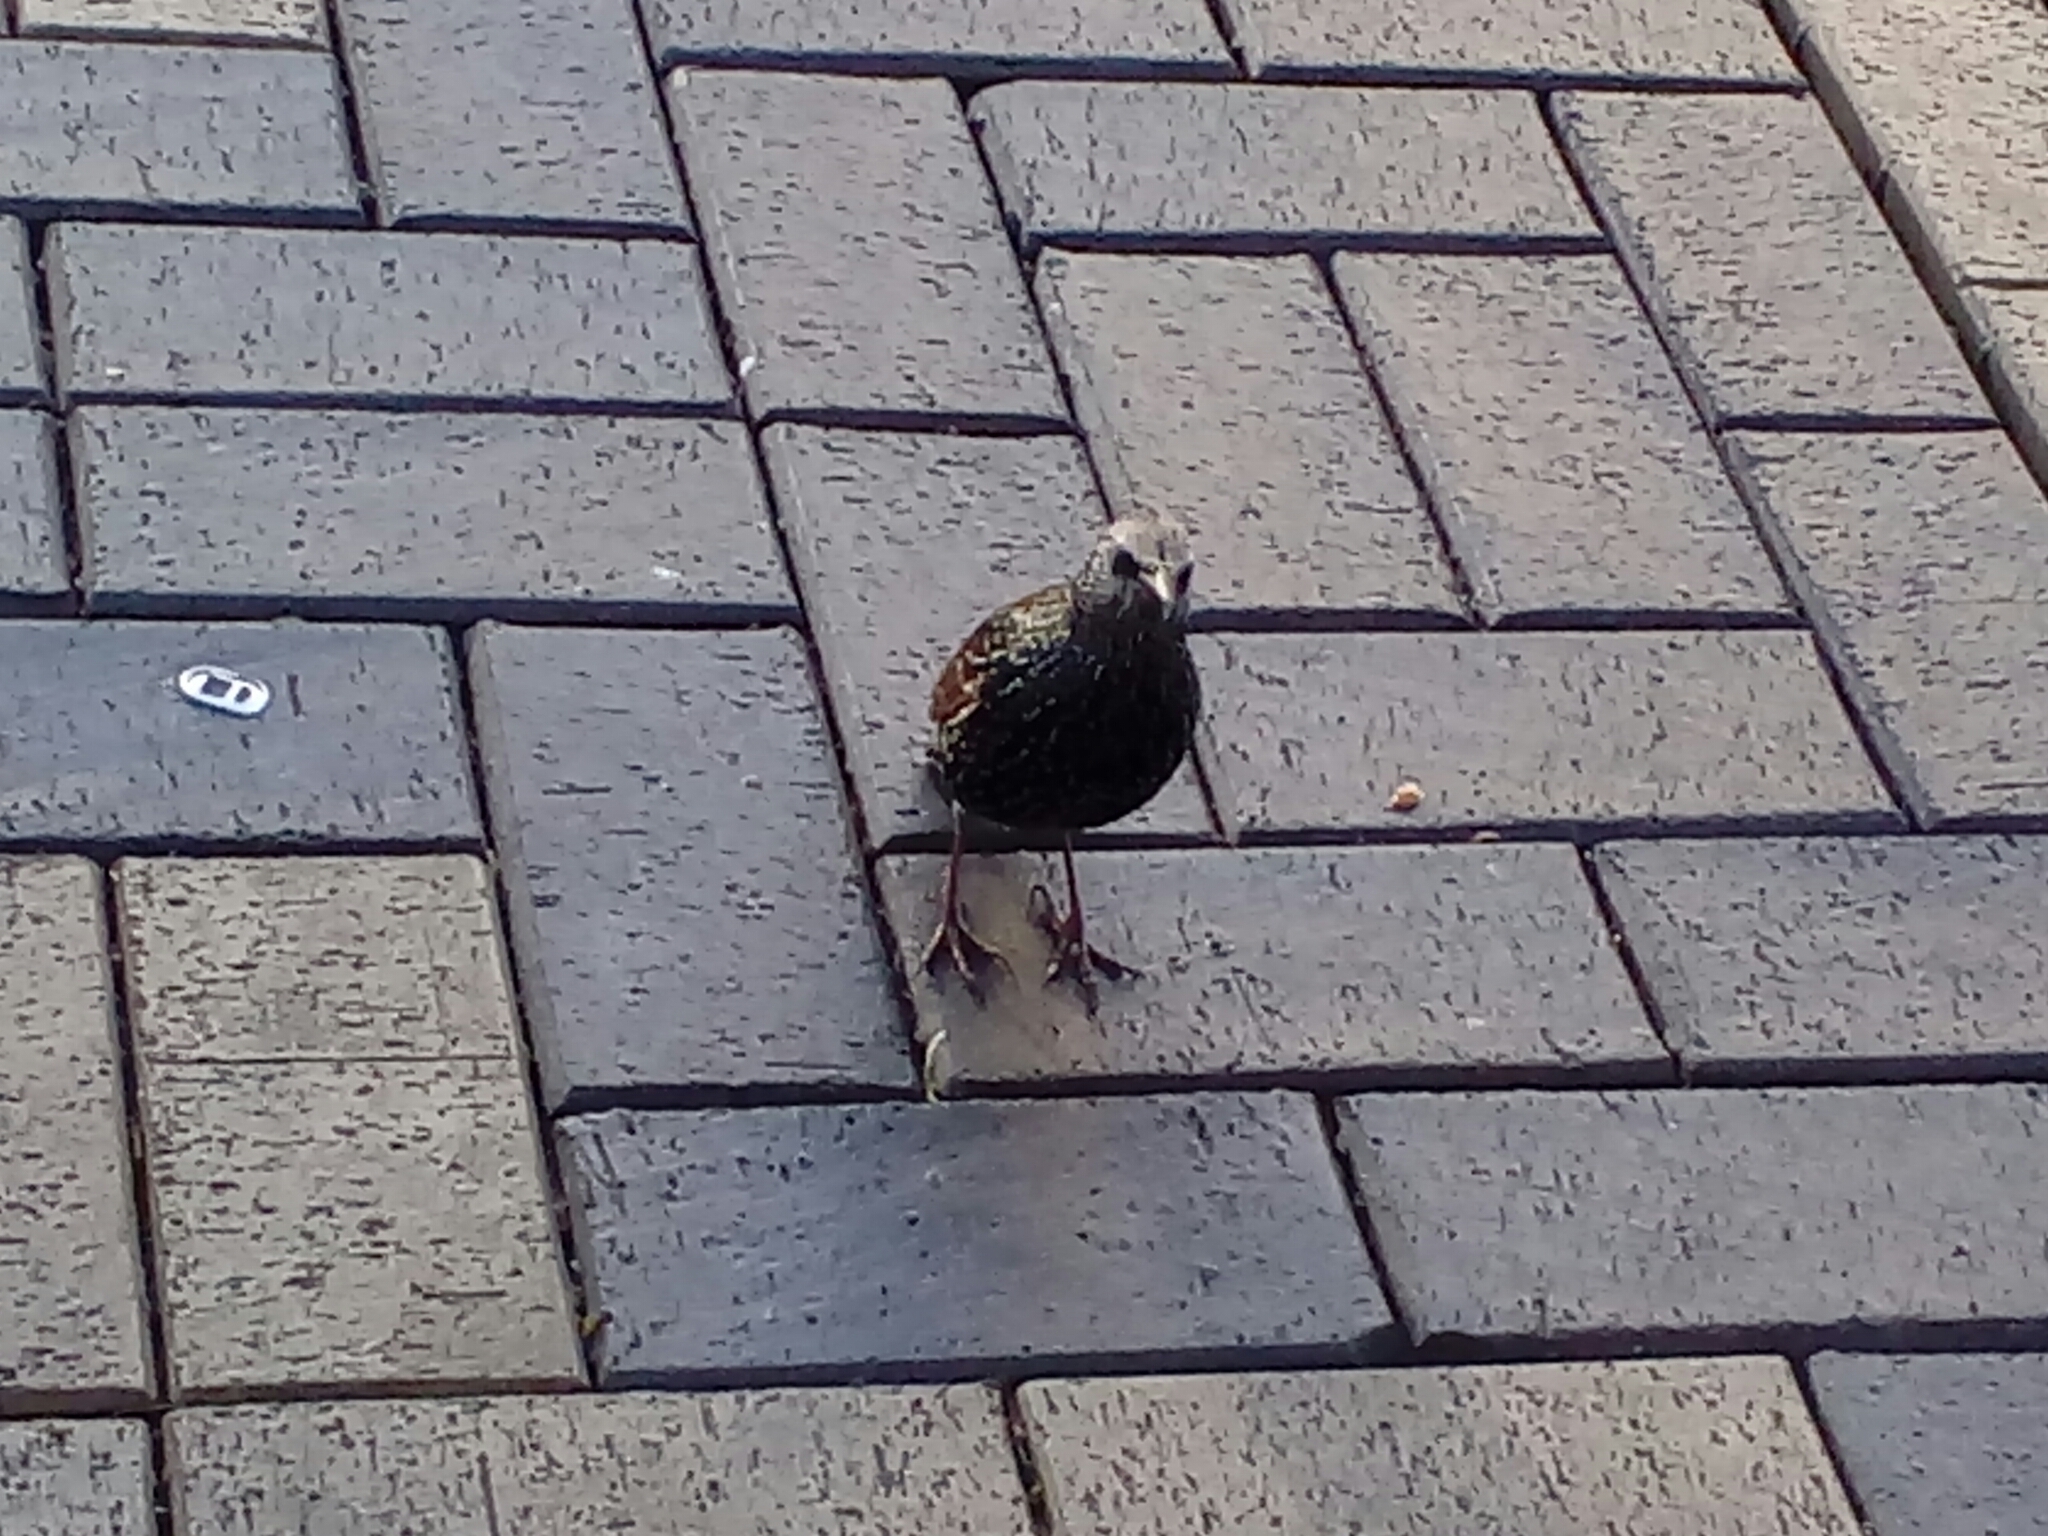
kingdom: Animalia
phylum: Chordata
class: Aves
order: Passeriformes
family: Sturnidae
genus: Sturnus
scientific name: Sturnus vulgaris
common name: Common starling
